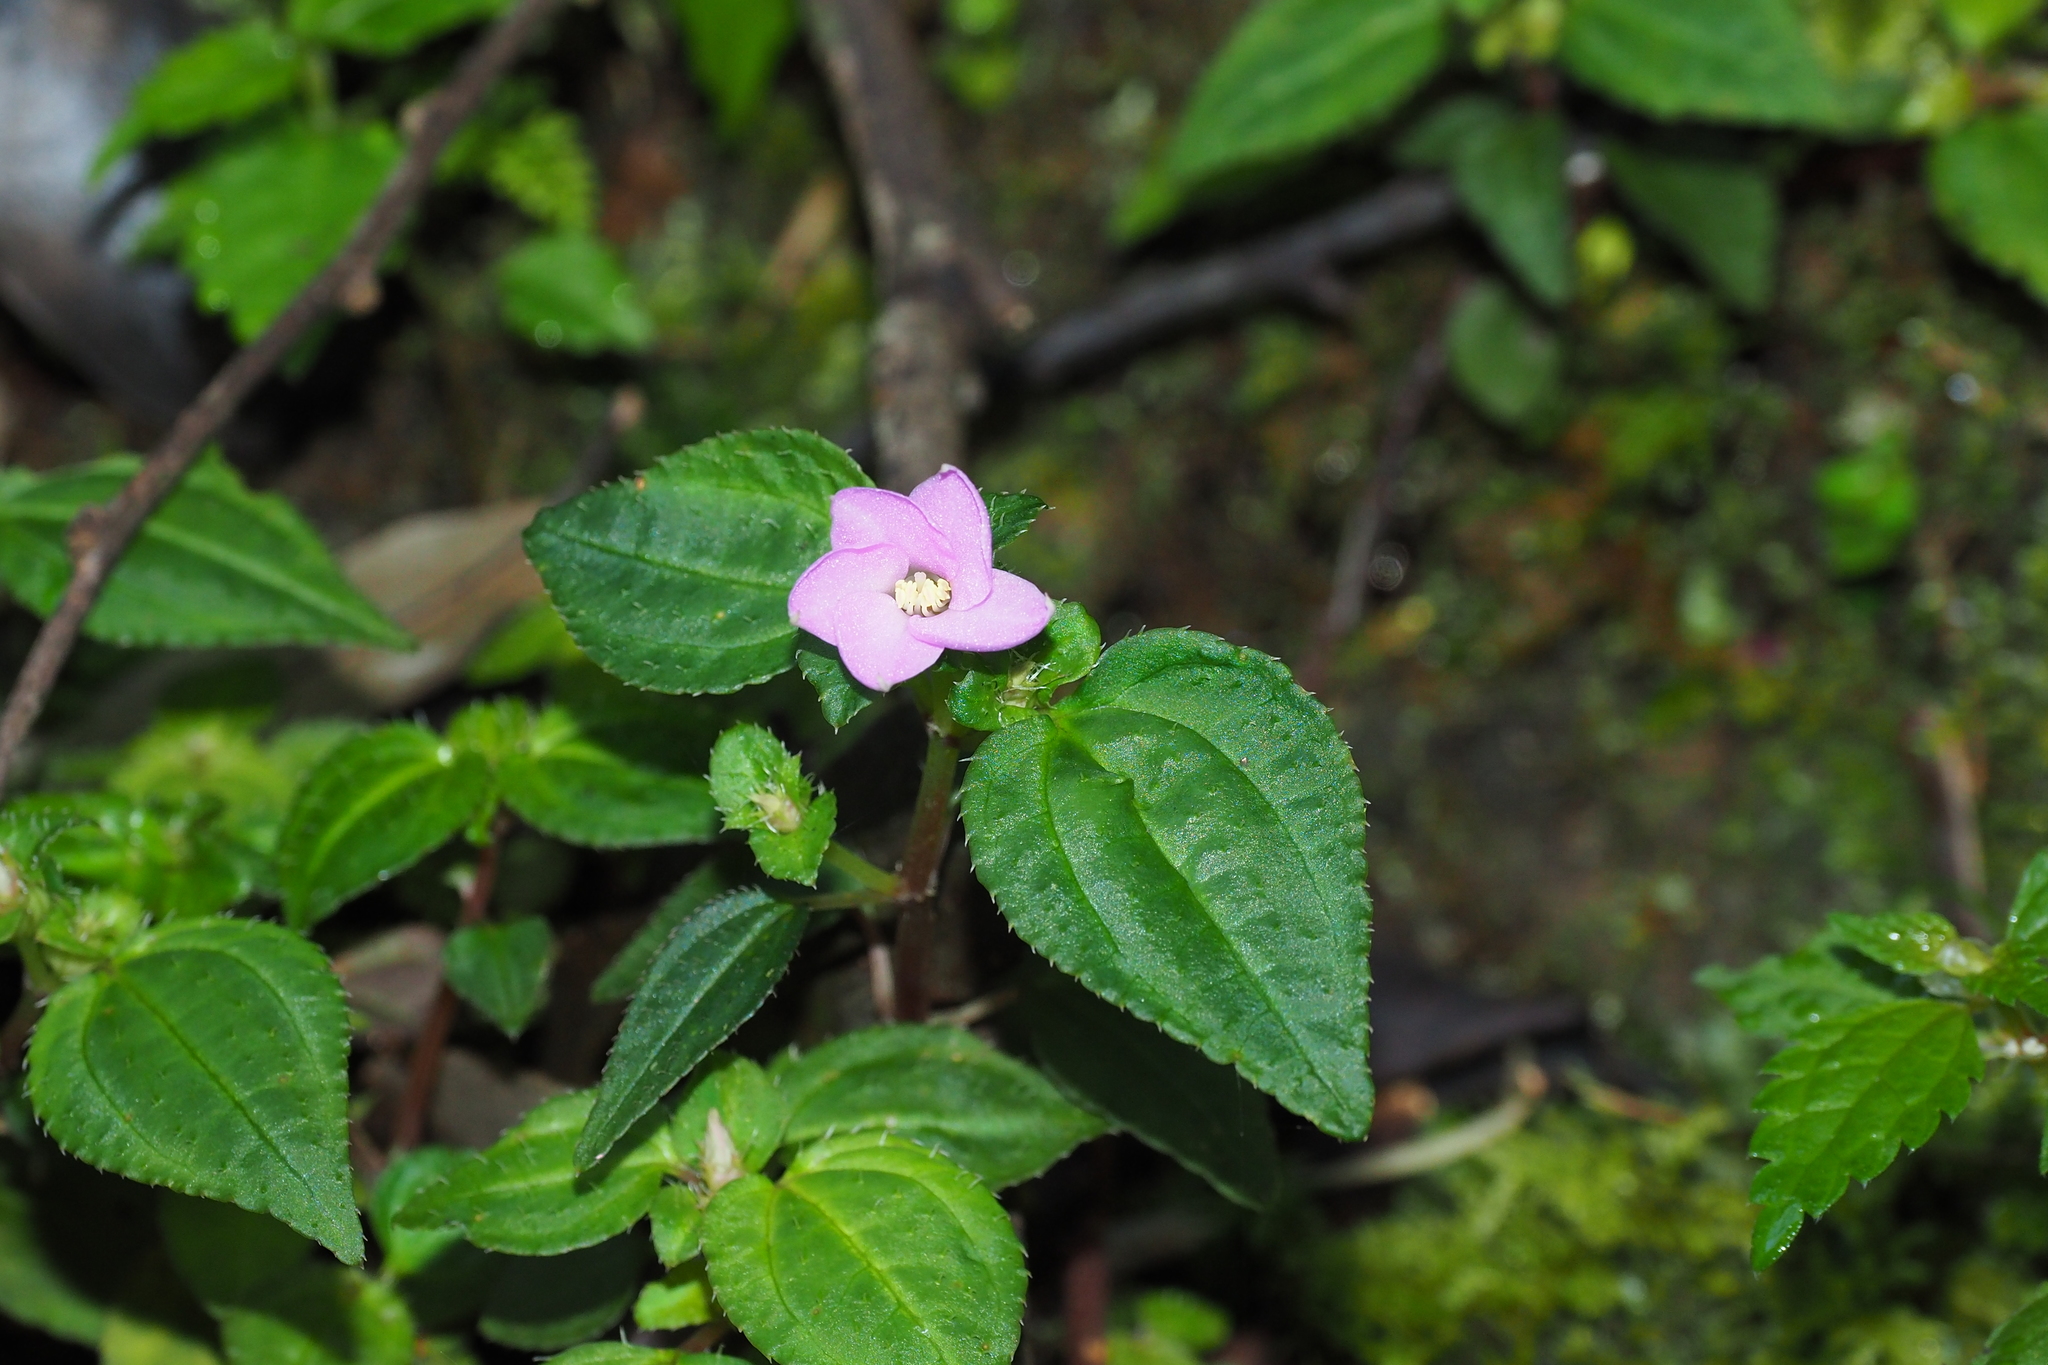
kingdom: Plantae
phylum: Tracheophyta
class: Magnoliopsida
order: Myrtales
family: Melastomataceae
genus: Sarcopyramis
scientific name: Sarcopyramis bodinieri
